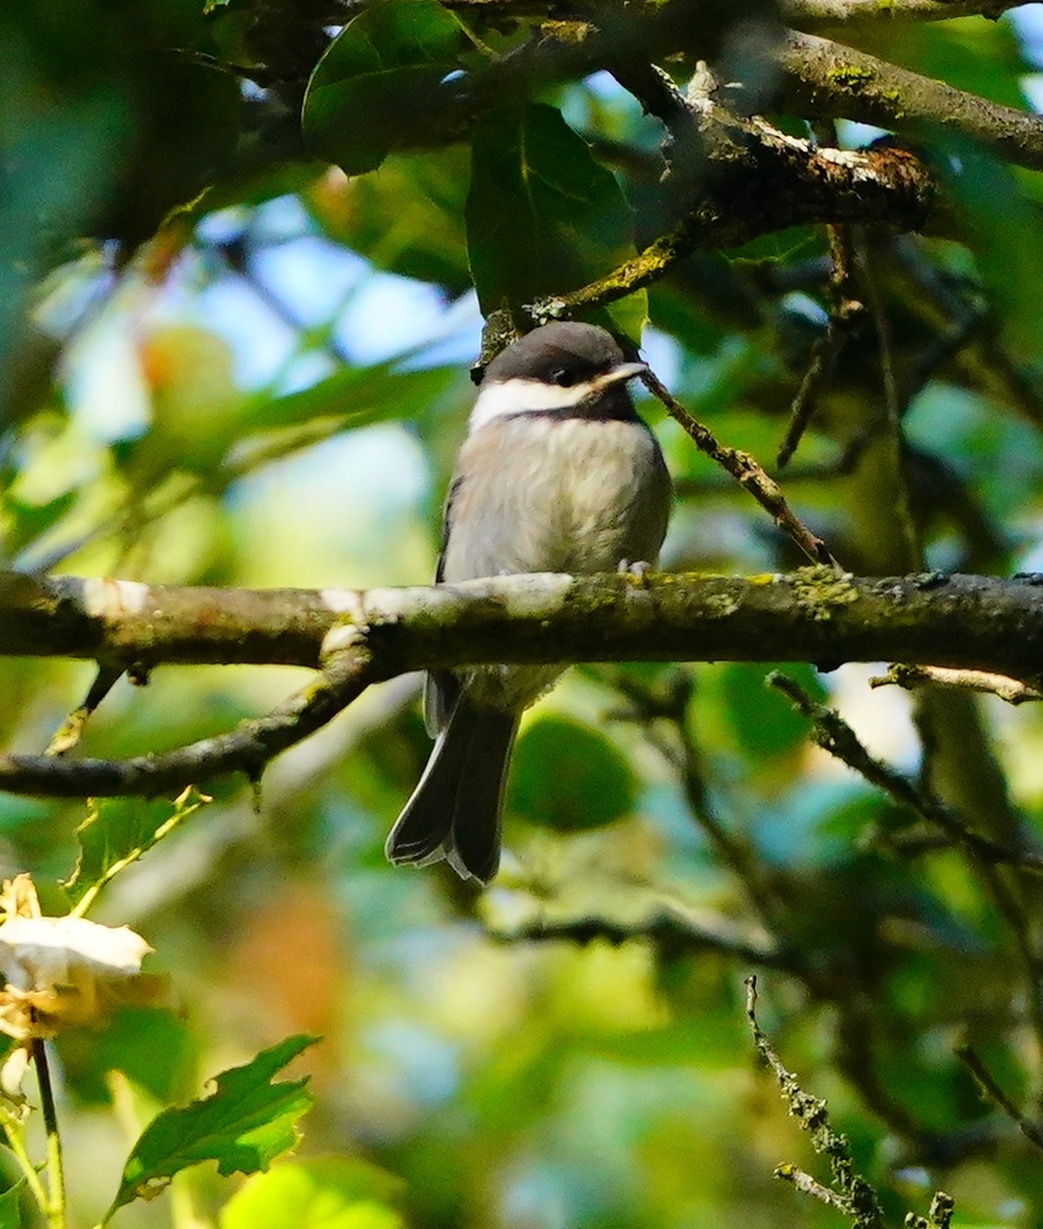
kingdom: Animalia
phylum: Chordata
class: Aves
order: Passeriformes
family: Paridae
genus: Poecile
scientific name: Poecile rufescens
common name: Chestnut-backed chickadee
